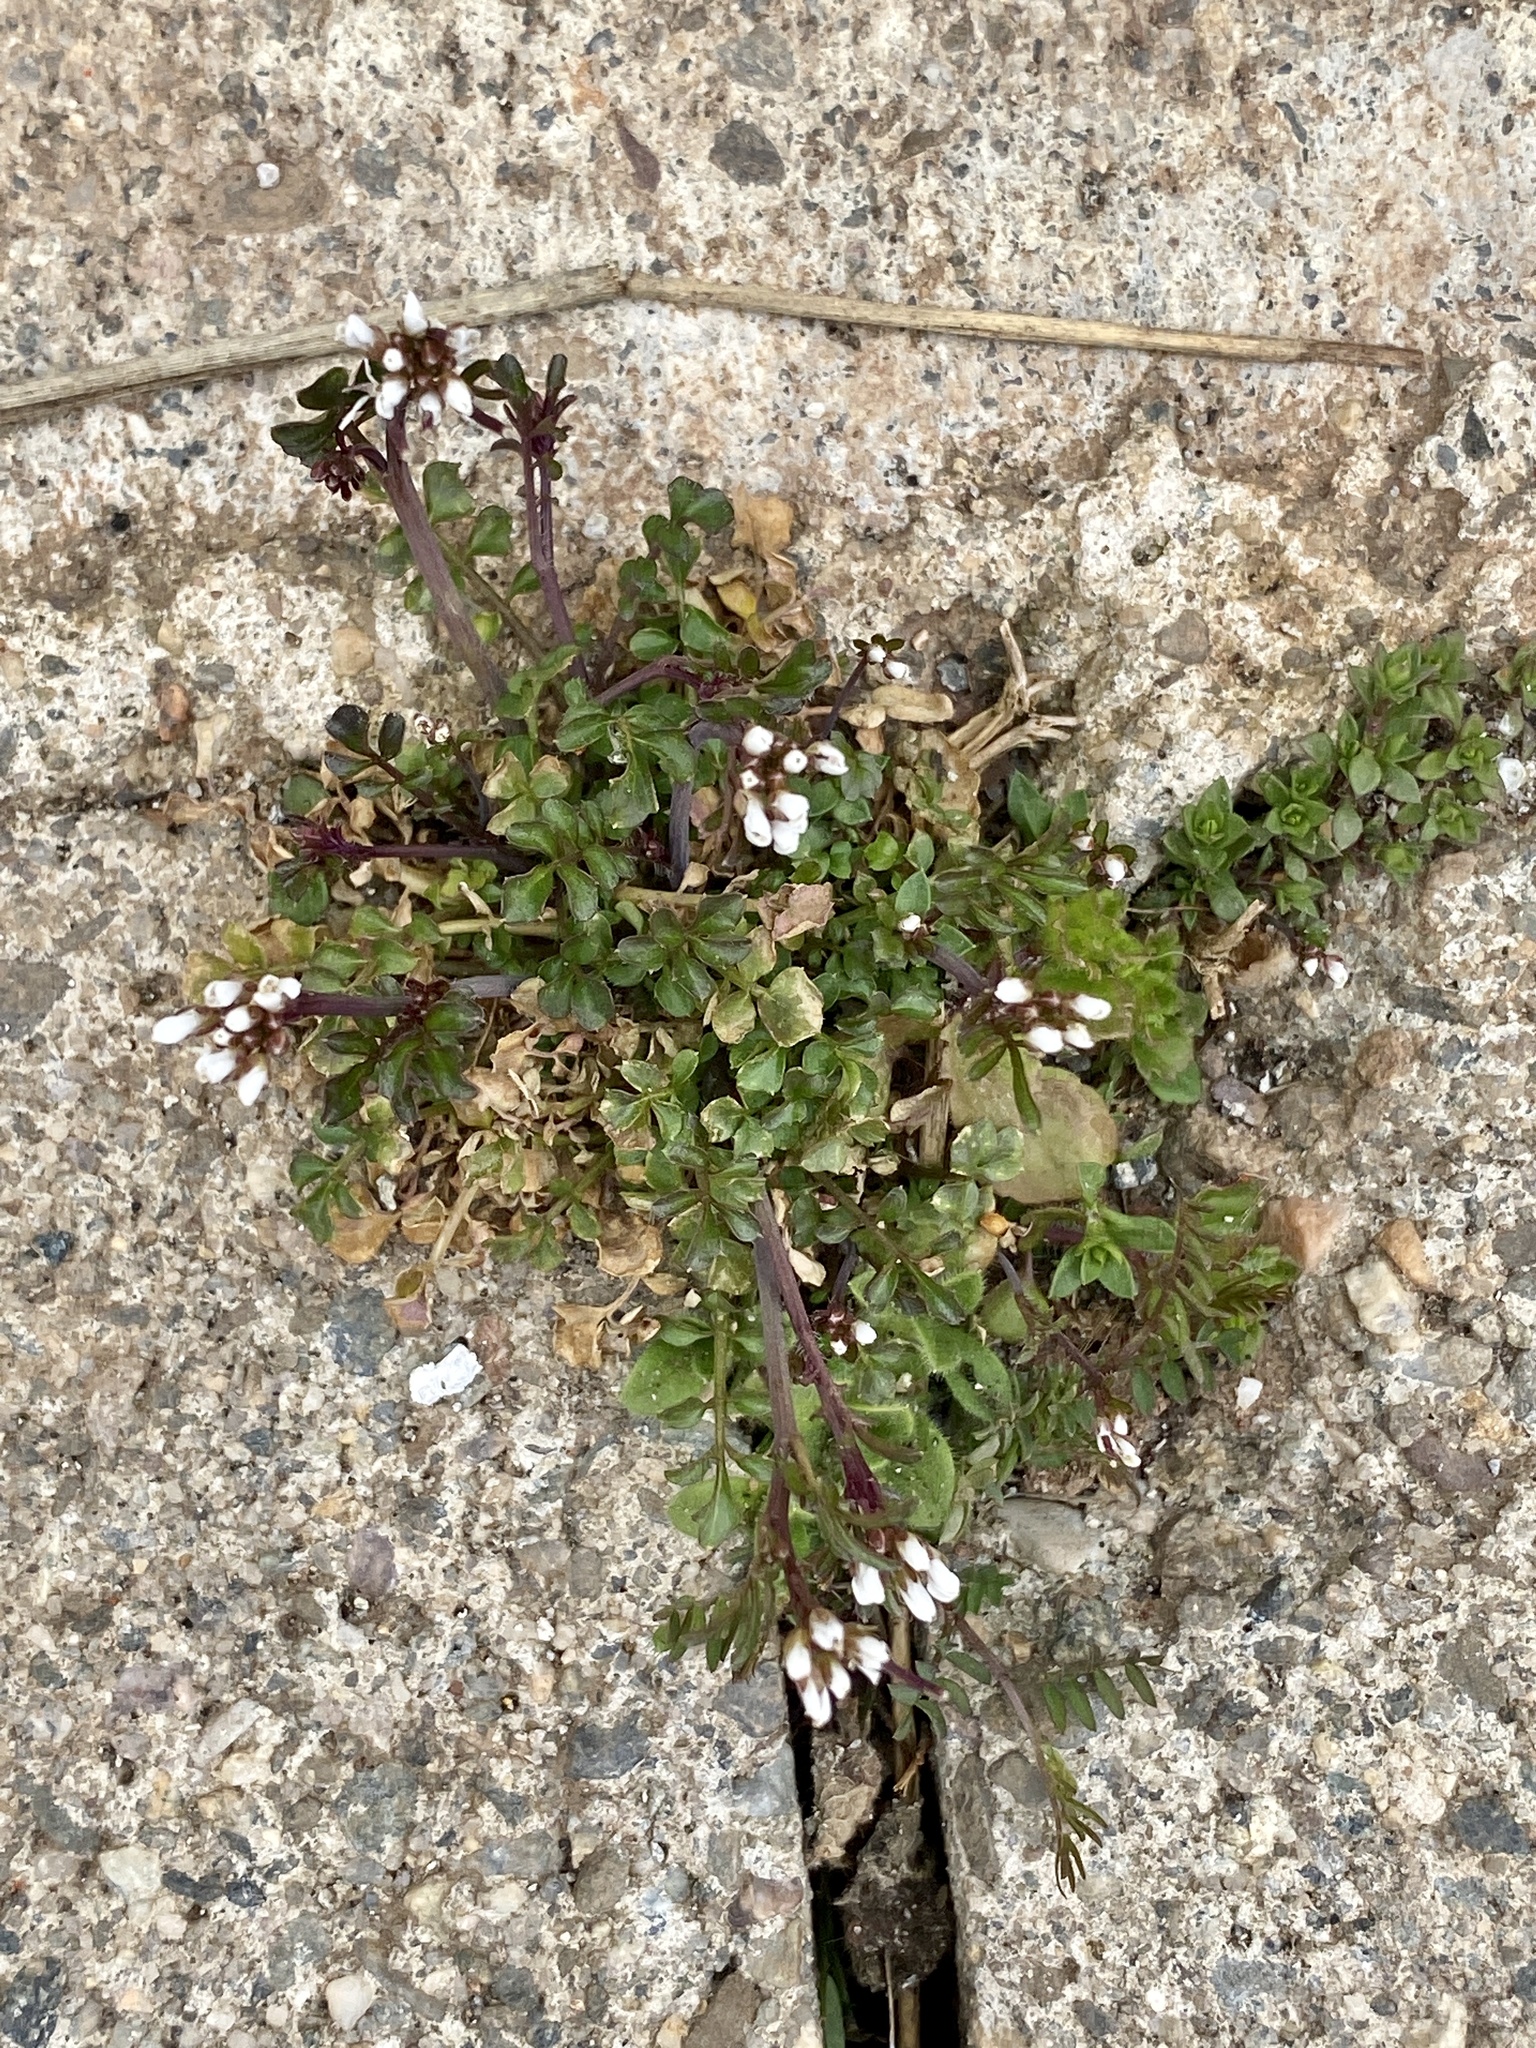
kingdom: Plantae
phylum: Tracheophyta
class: Magnoliopsida
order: Brassicales
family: Brassicaceae
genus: Cardamine
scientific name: Cardamine hirsuta
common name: Hairy bittercress
